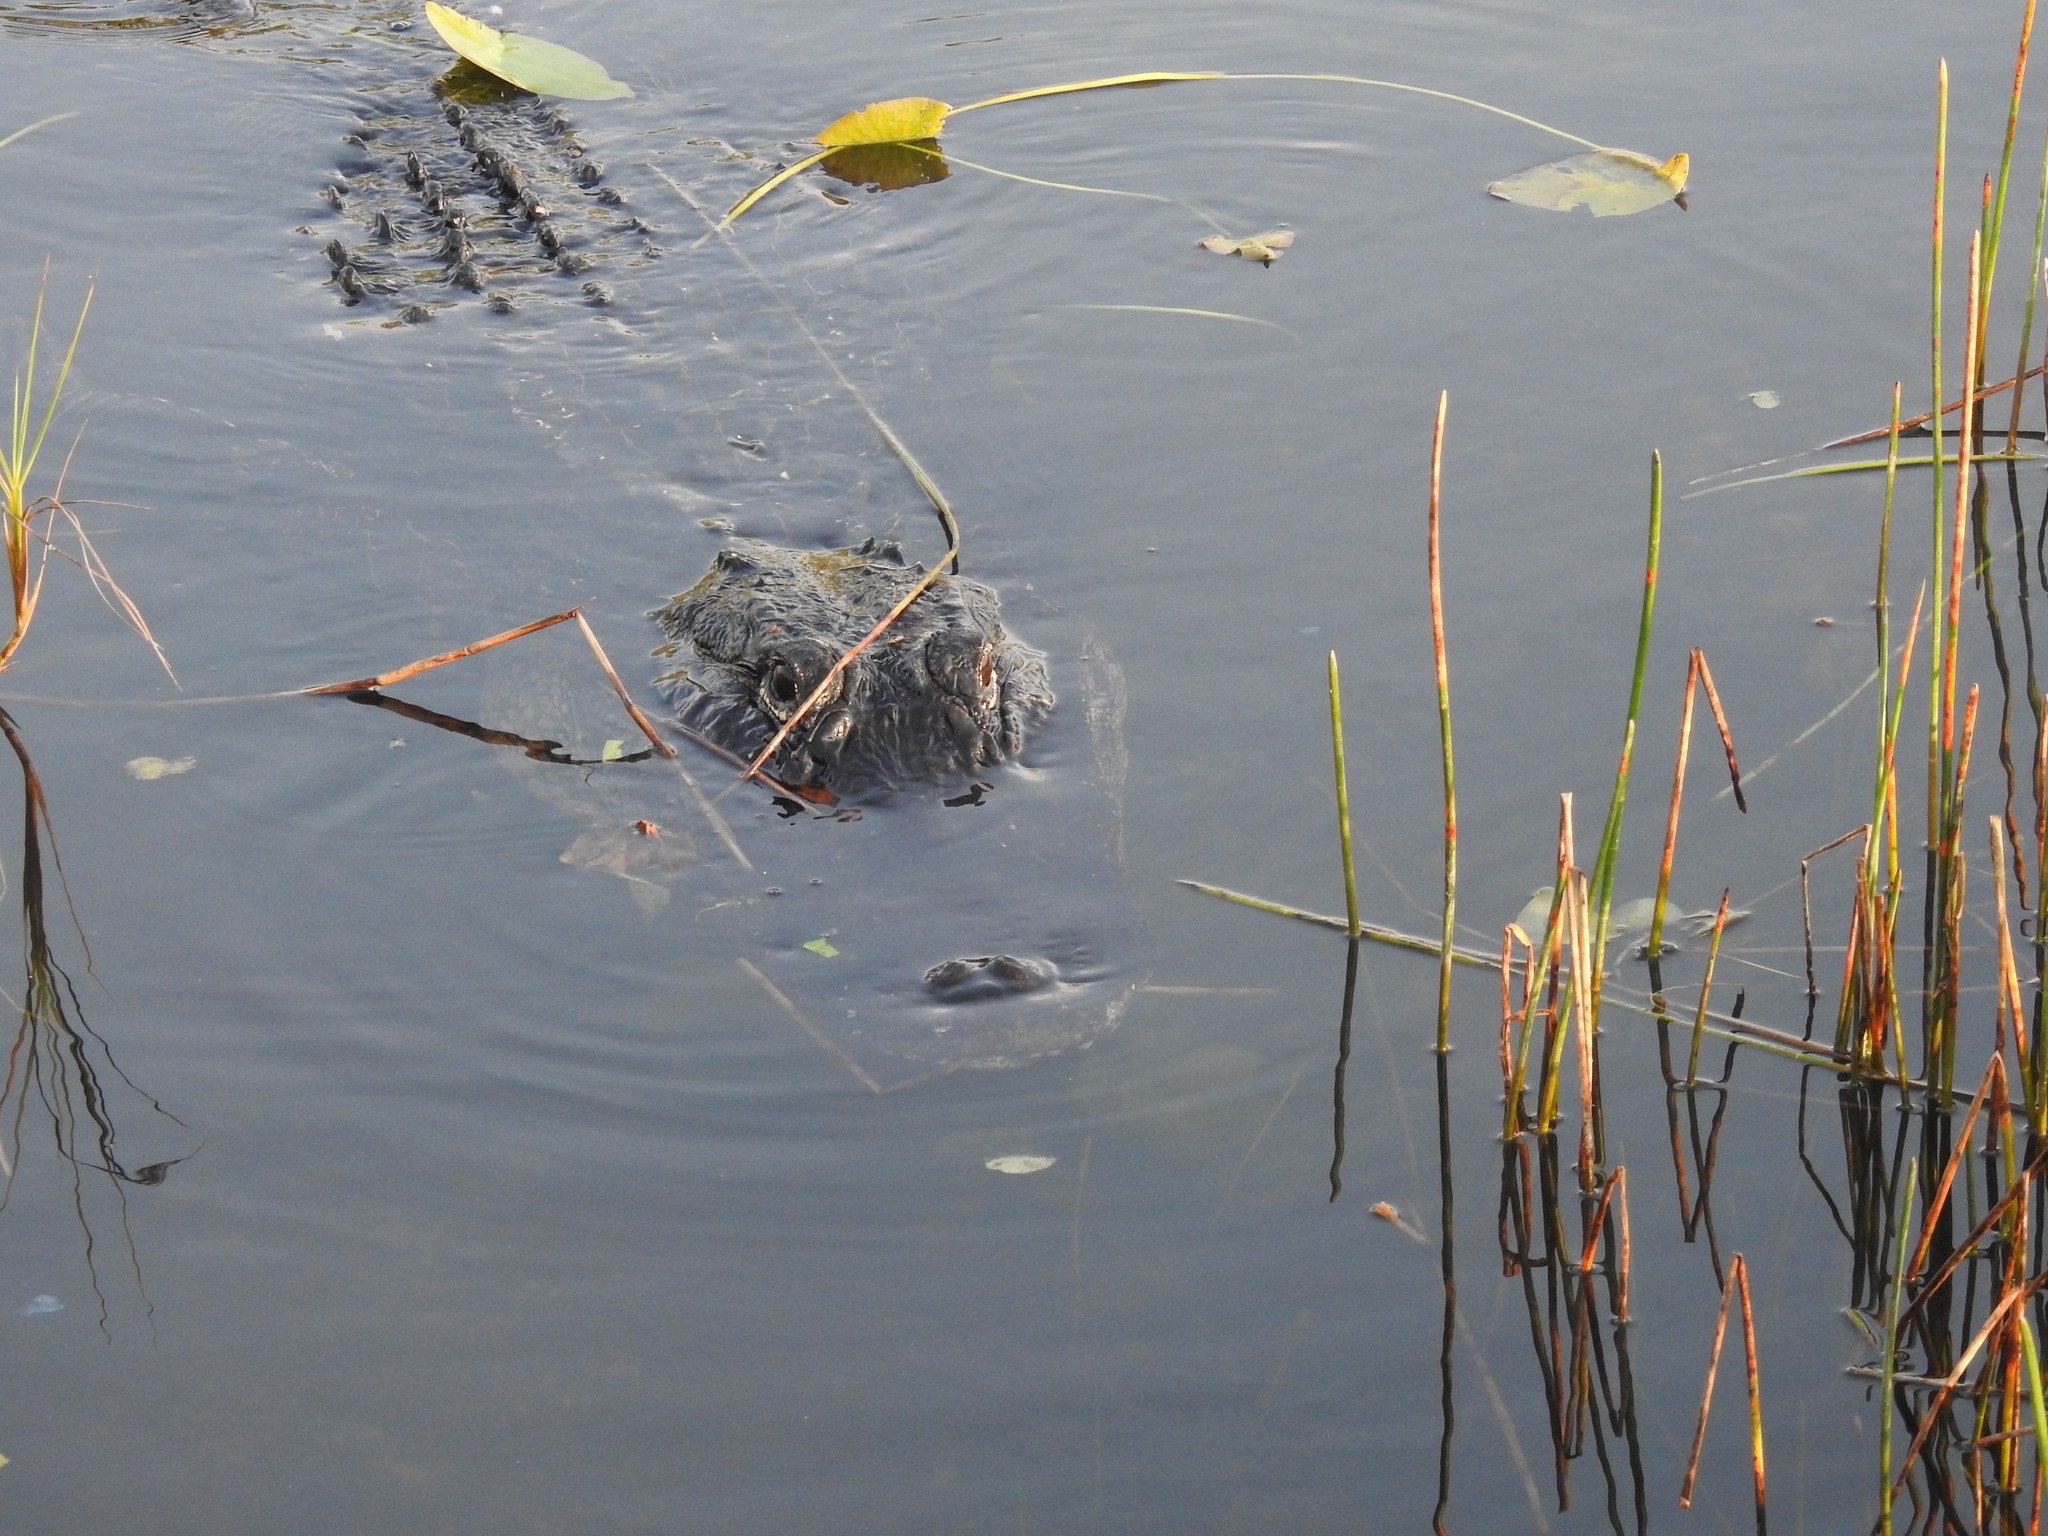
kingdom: Animalia
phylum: Chordata
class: Crocodylia
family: Alligatoridae
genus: Alligator
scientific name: Alligator mississippiensis
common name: American alligator
